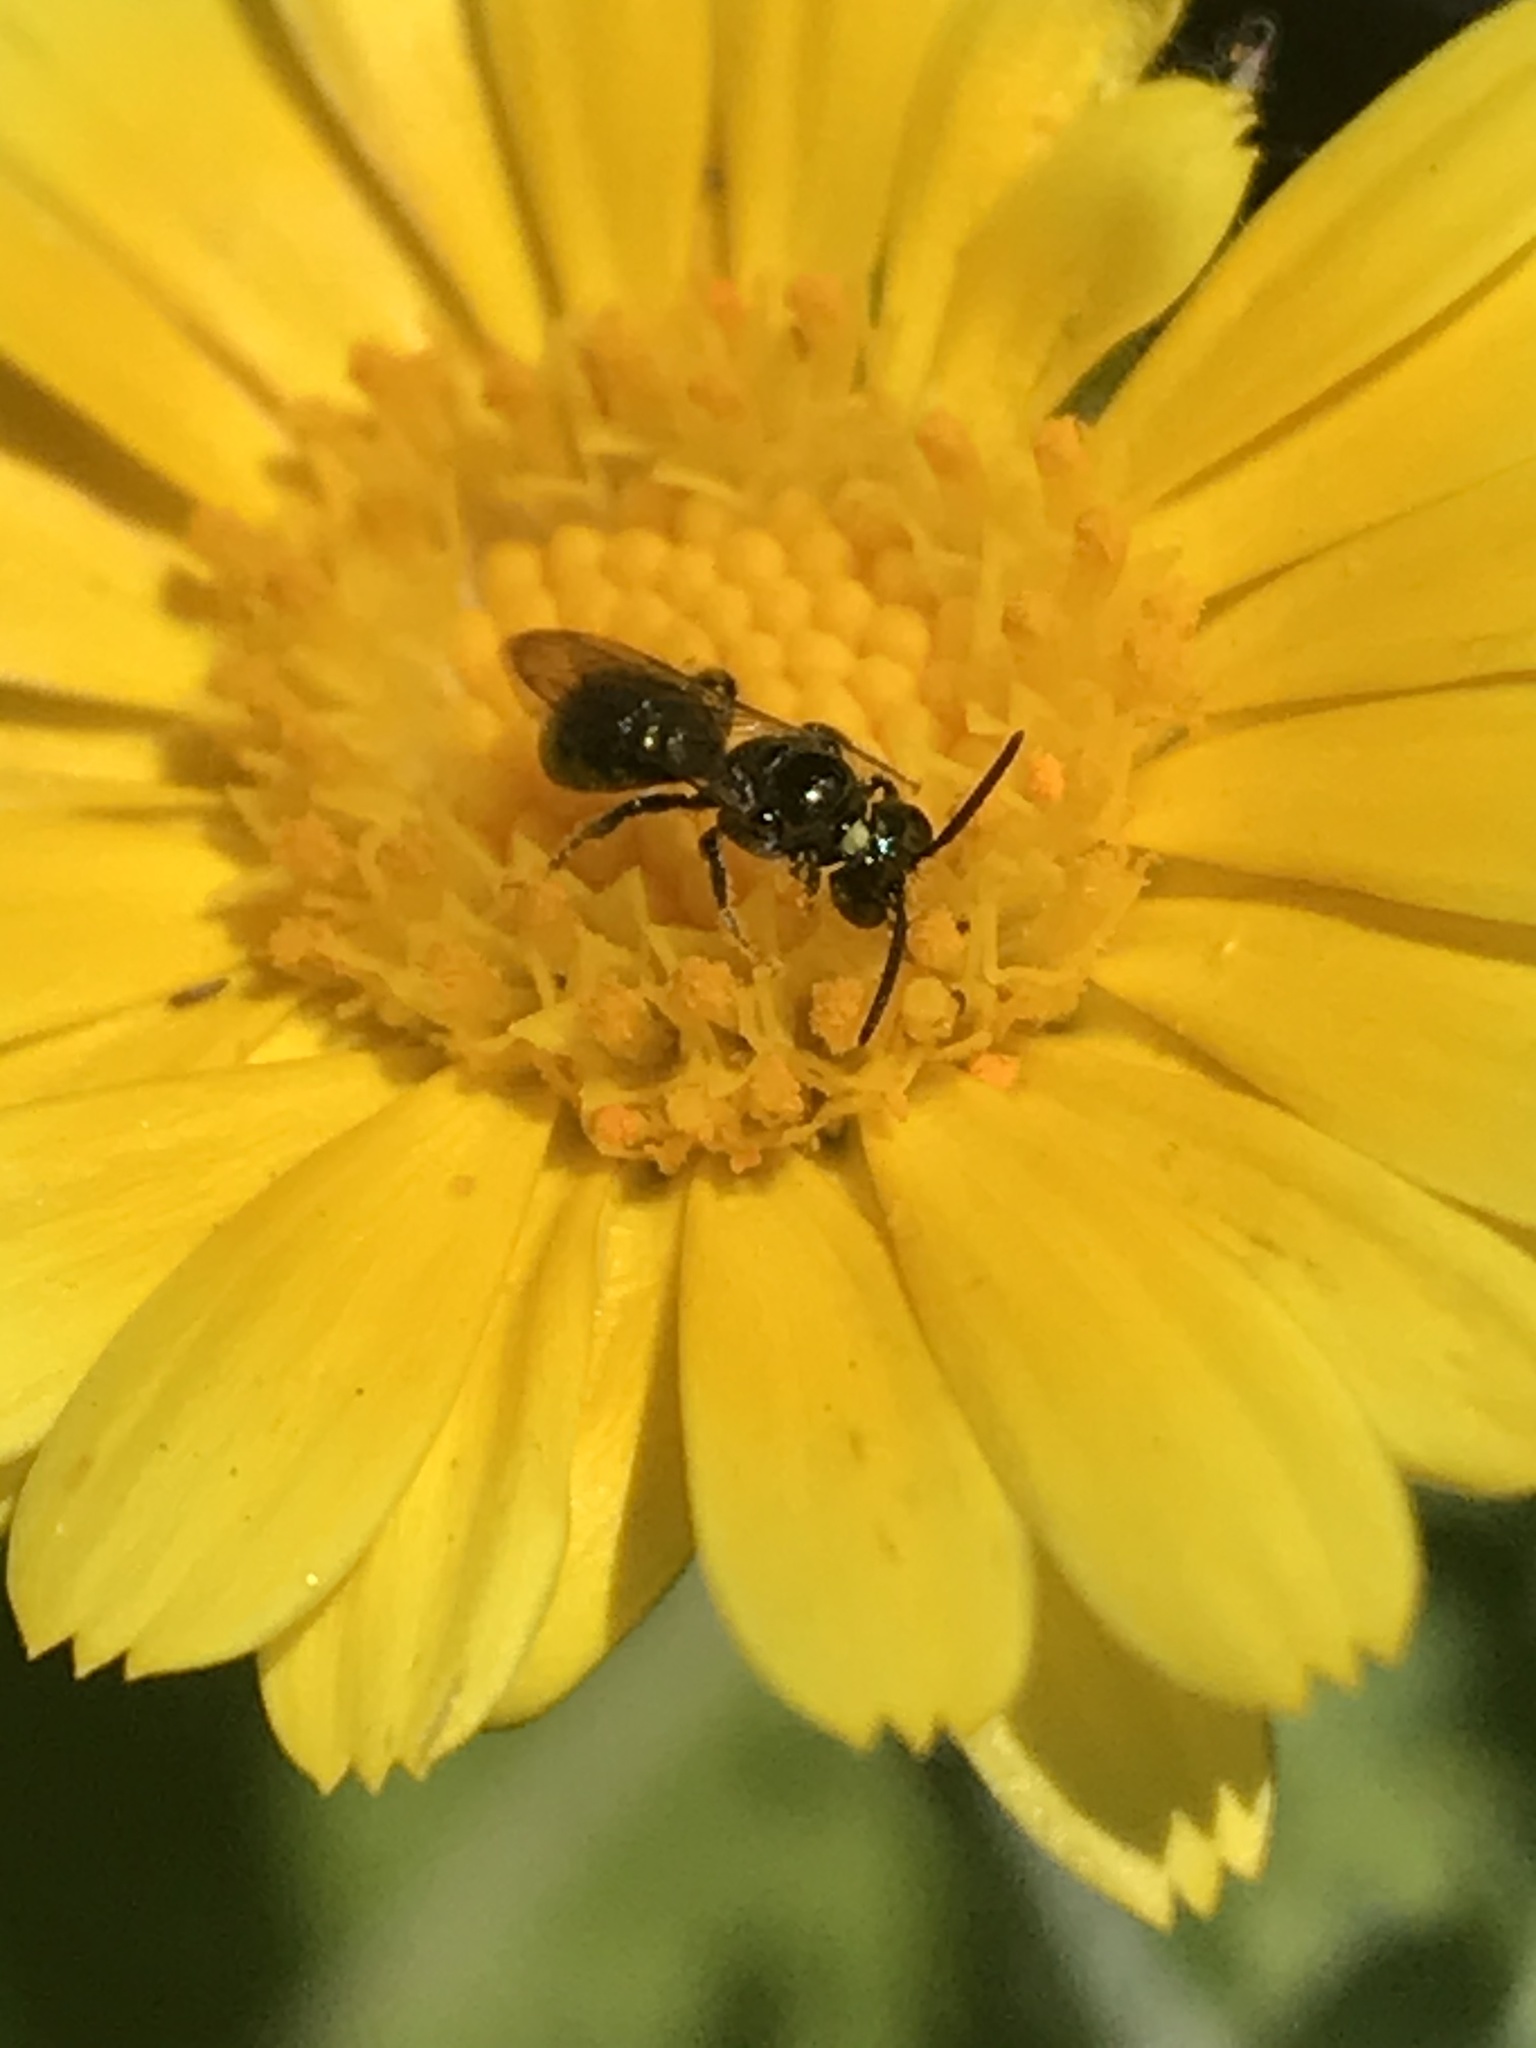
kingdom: Animalia
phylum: Arthropoda
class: Insecta
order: Hymenoptera
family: Apidae
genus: Zadontomerus
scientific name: Zadontomerus
